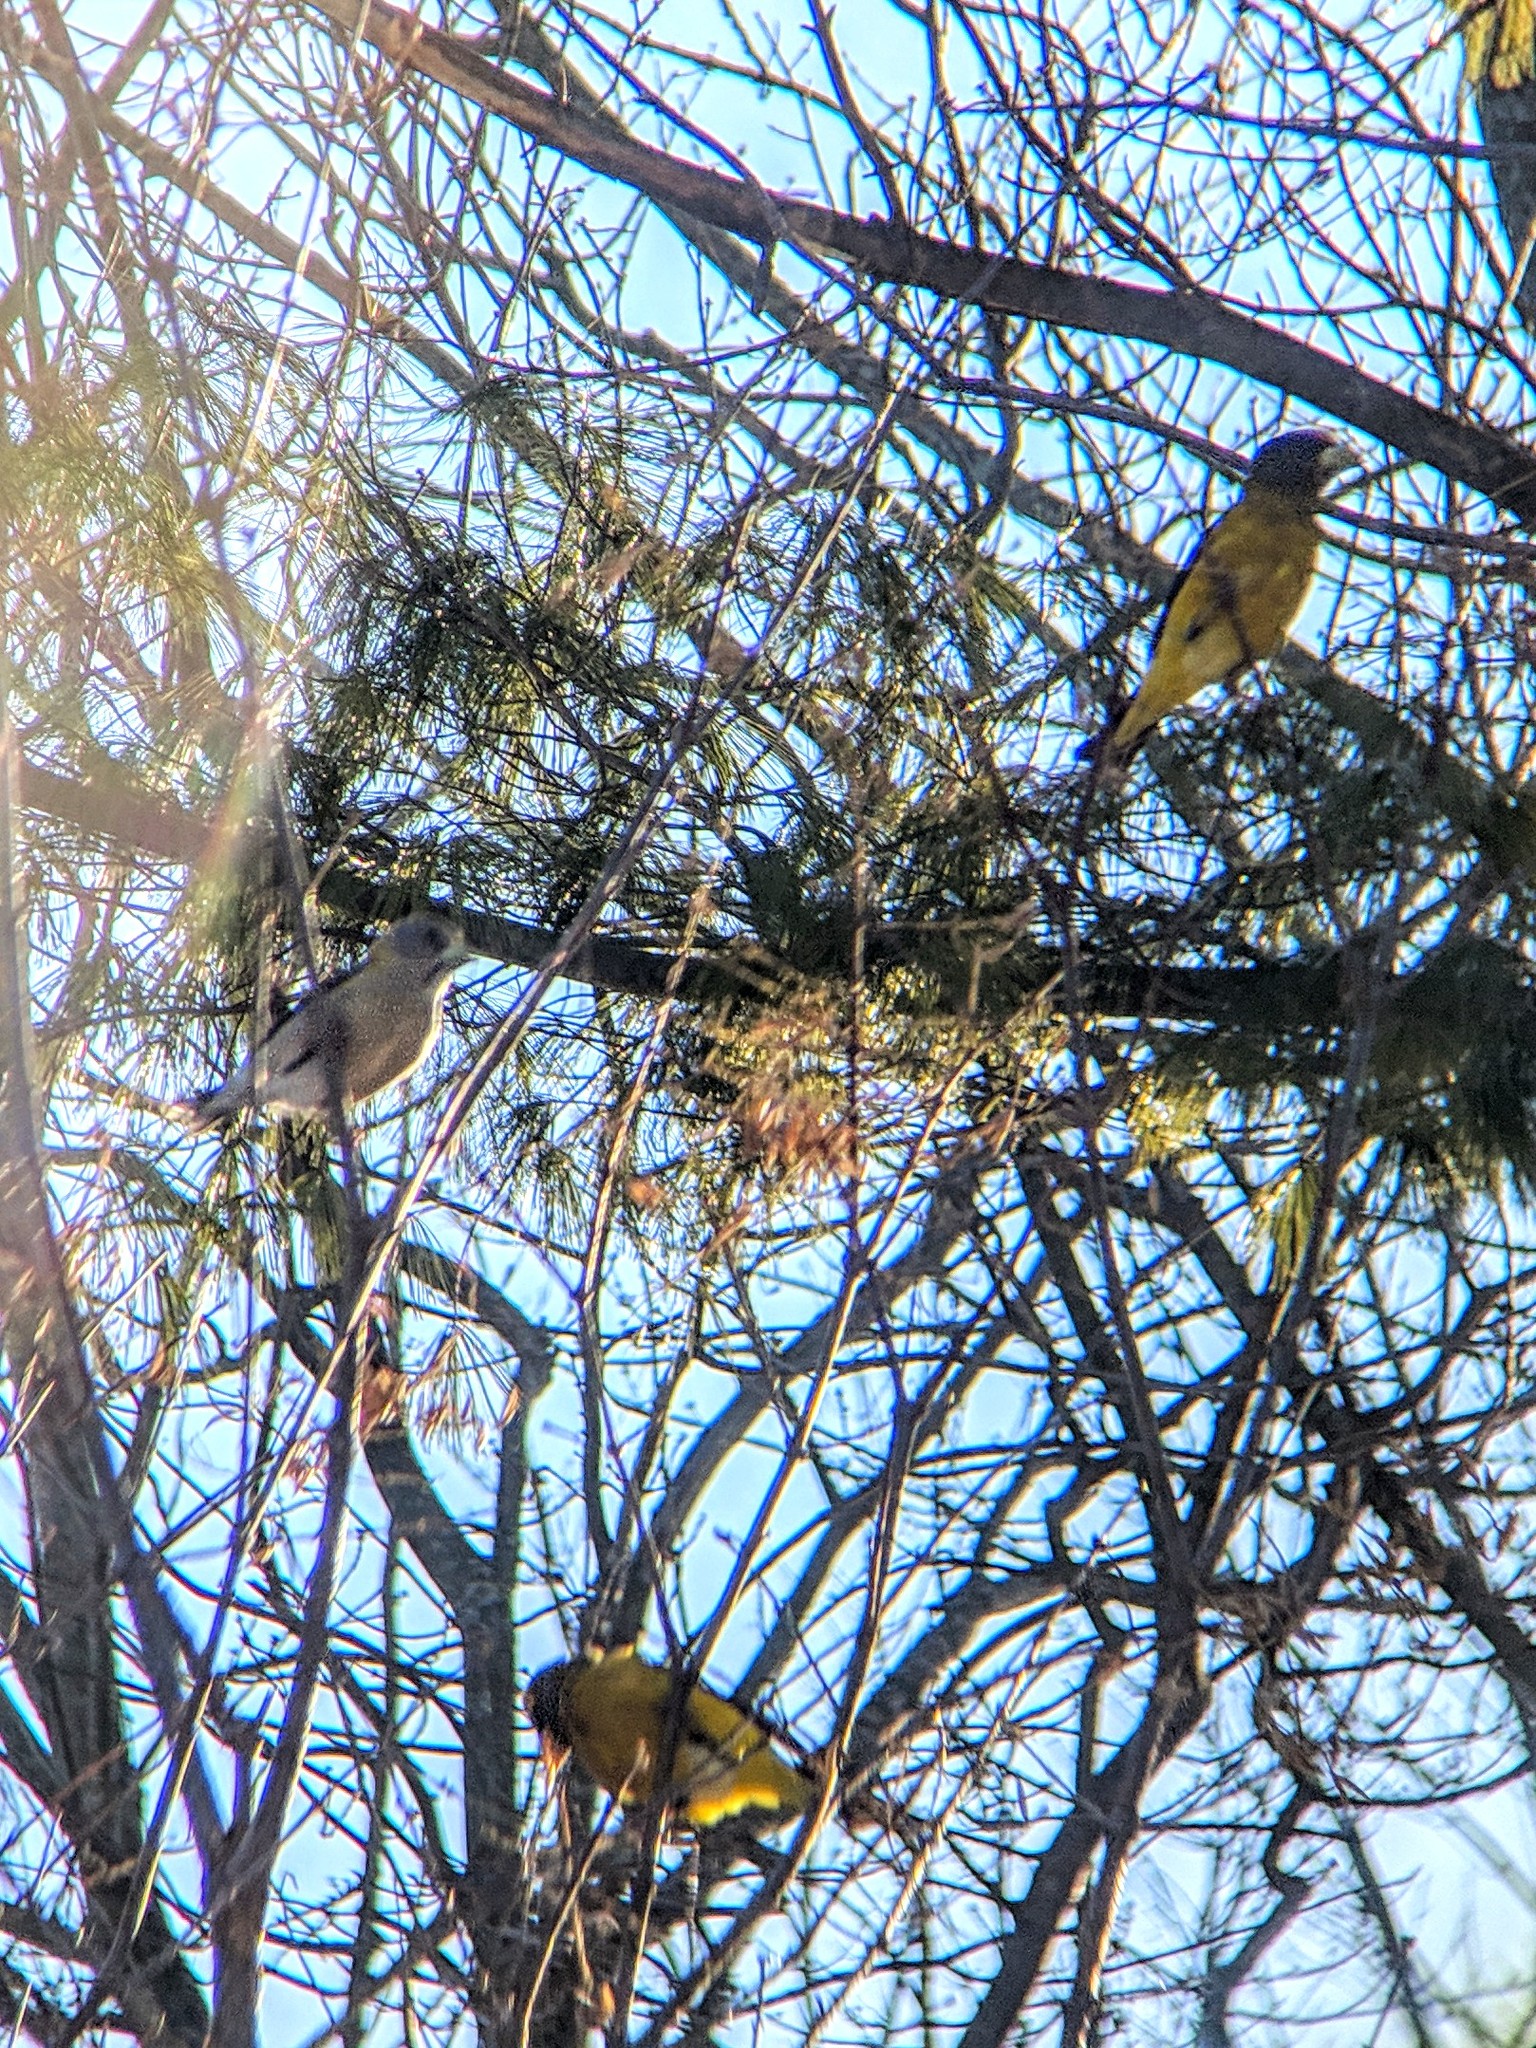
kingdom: Animalia
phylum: Chordata
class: Aves
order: Passeriformes
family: Fringillidae
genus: Hesperiphona
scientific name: Hesperiphona vespertina
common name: Evening grosbeak
